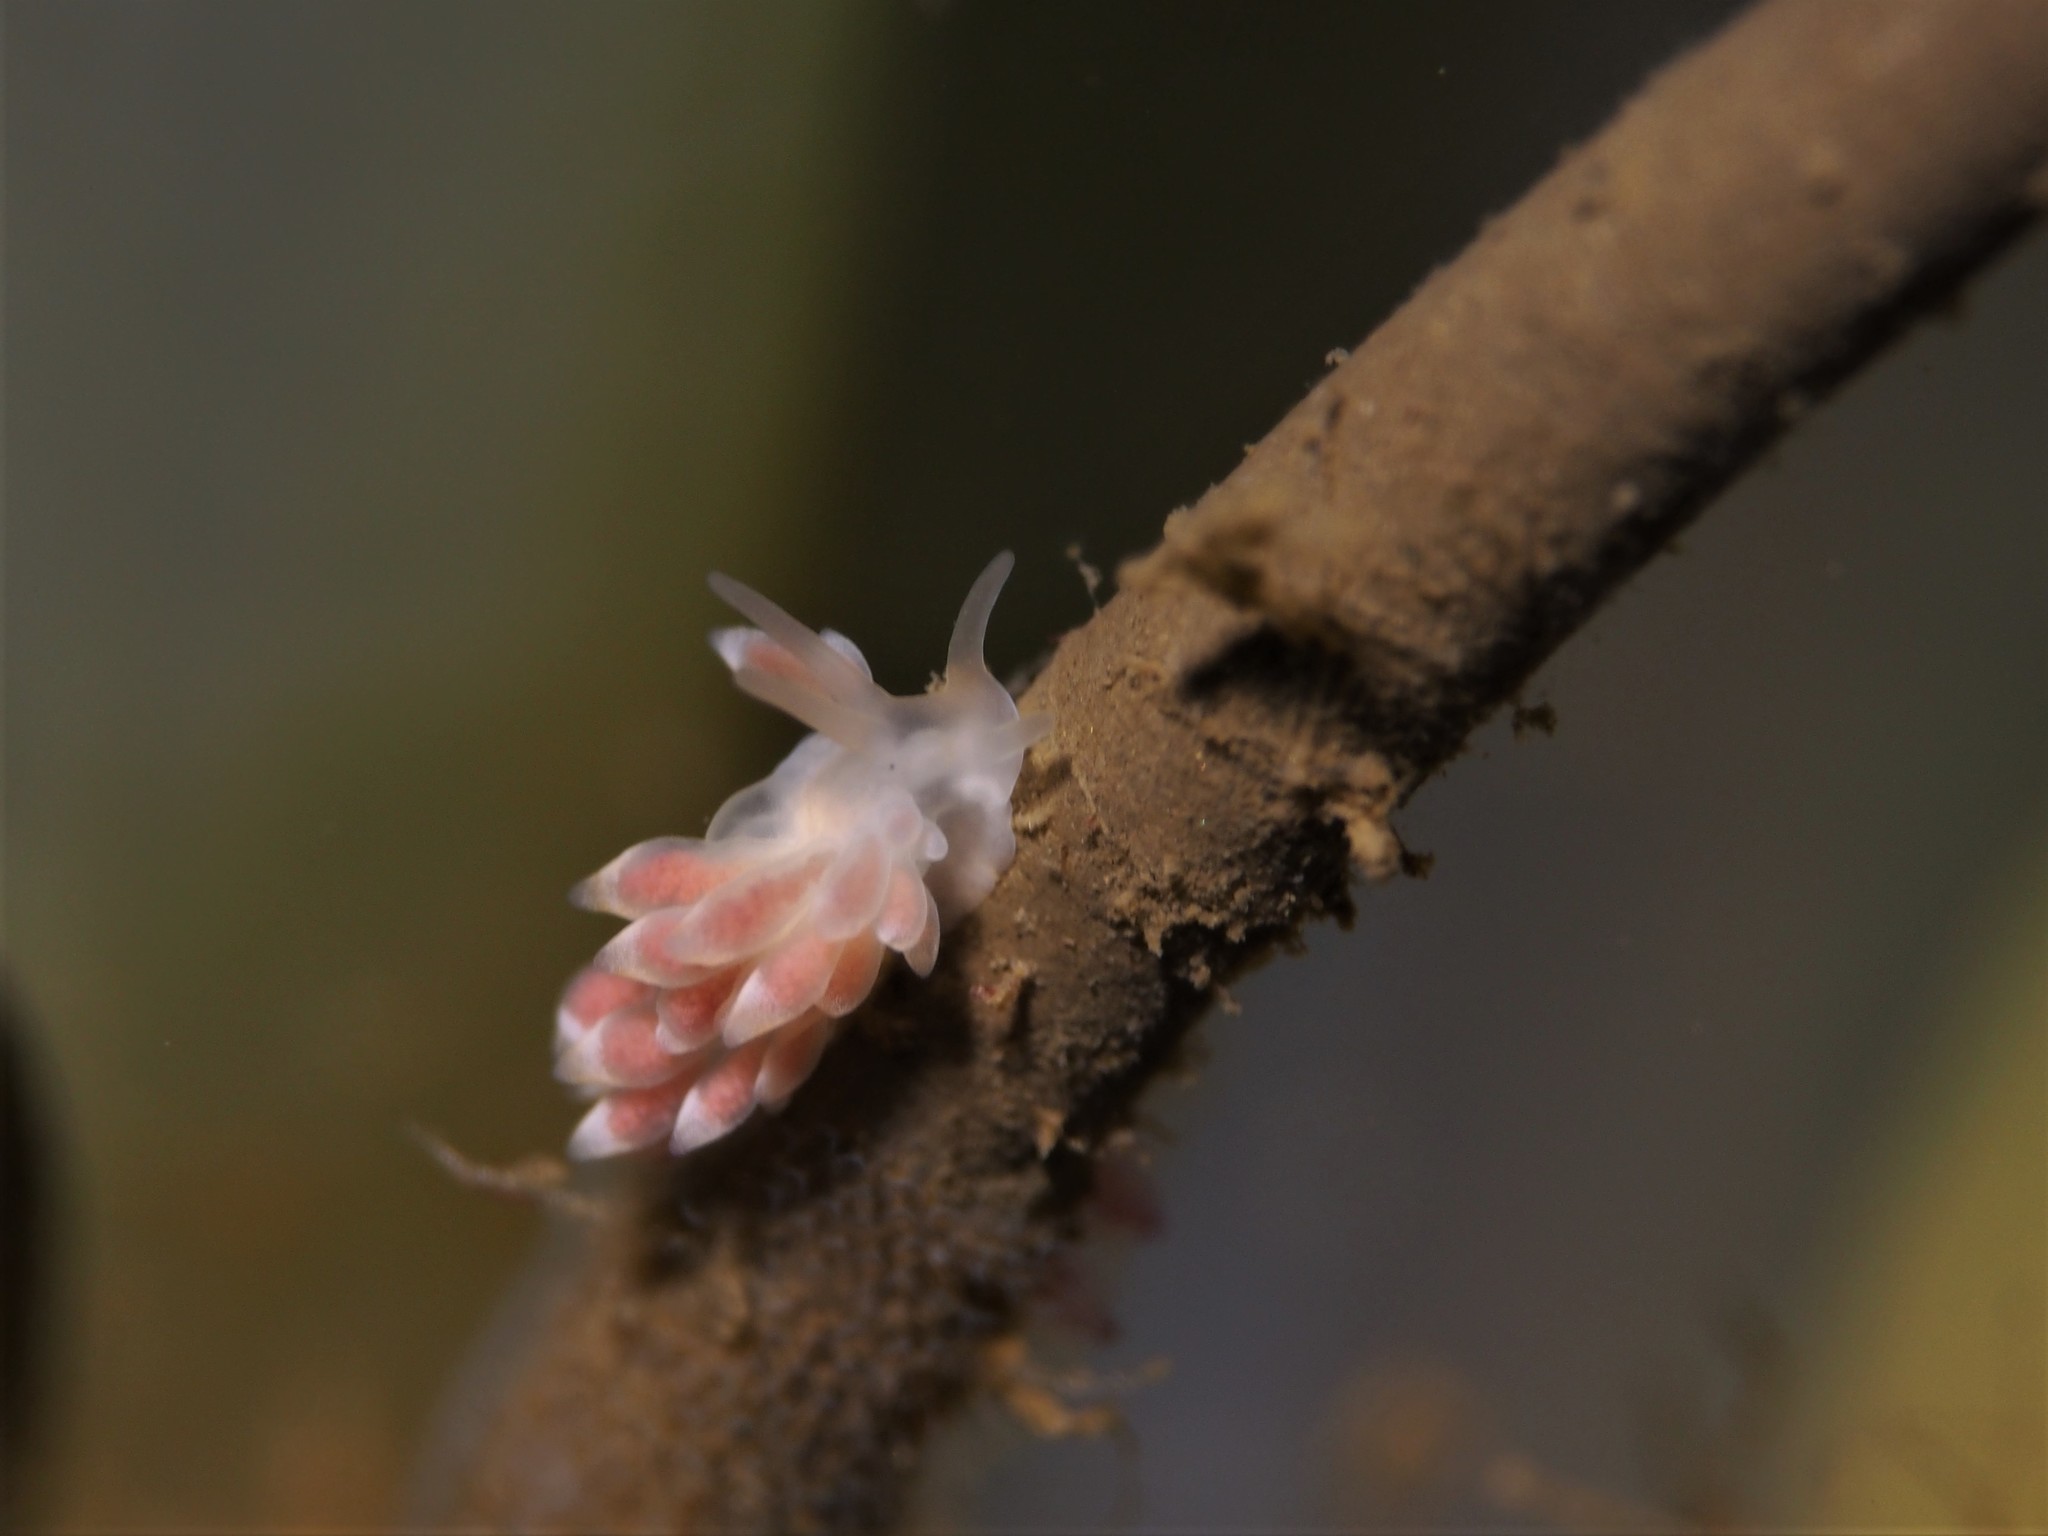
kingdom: Animalia
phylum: Mollusca
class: Gastropoda
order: Nudibranchia
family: Trinchesiidae
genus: Catriona
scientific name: Catriona aurantia
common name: Corange-tip cuthona
